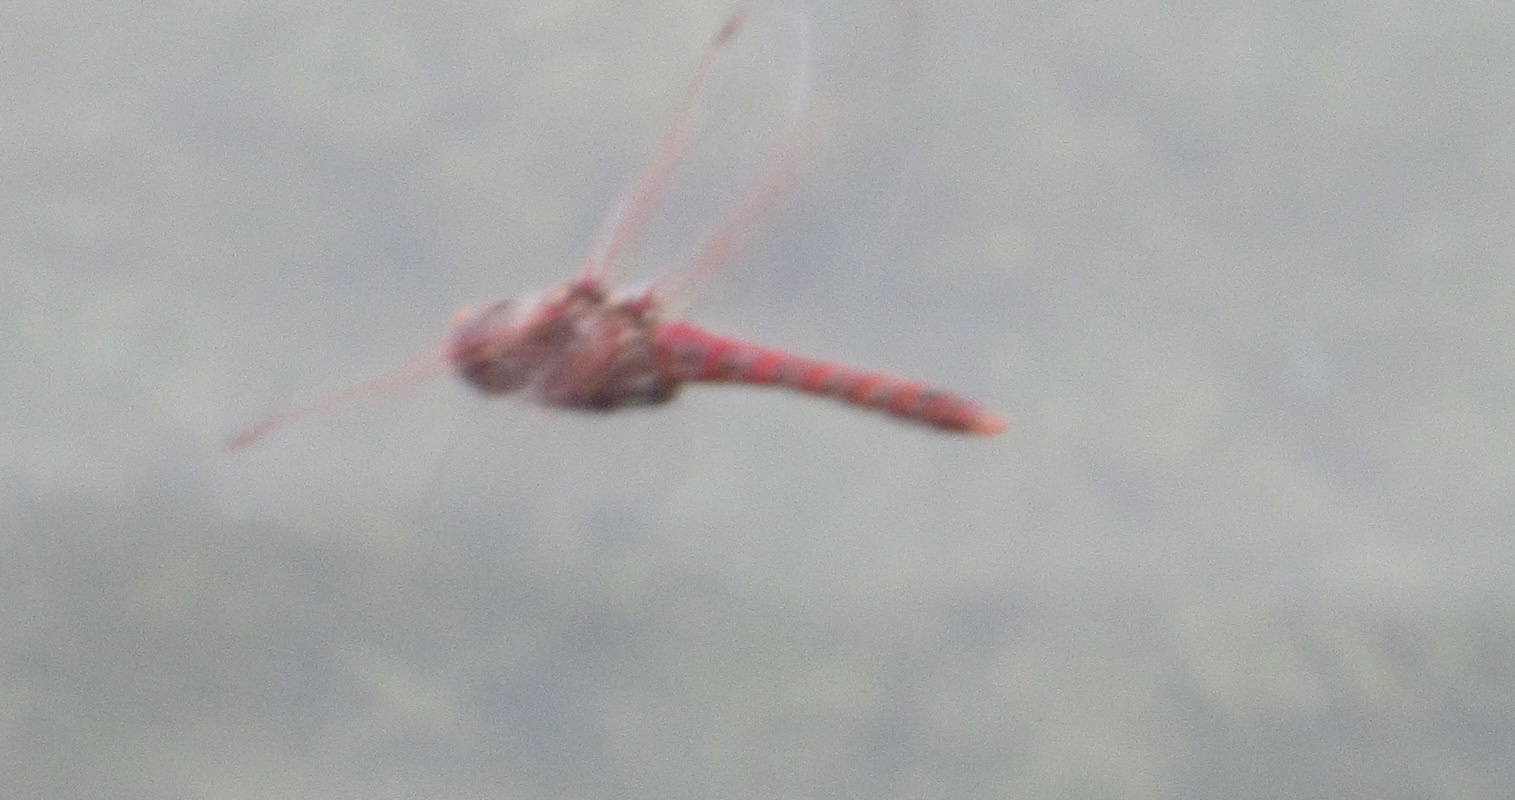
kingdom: Animalia
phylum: Arthropoda
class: Insecta
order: Odonata
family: Libellulidae
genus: Sympetrum
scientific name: Sympetrum corruptum
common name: Variegated meadowhawk
